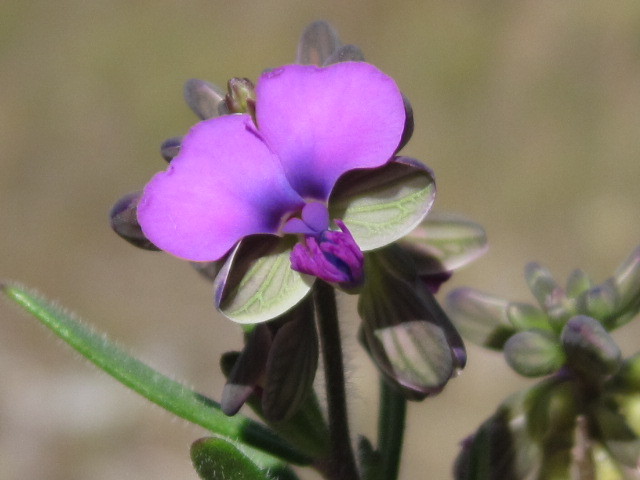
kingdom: Plantae
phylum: Tracheophyta
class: Magnoliopsida
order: Fabales
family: Polygalaceae
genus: Polygala
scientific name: Polygala grandidieri
